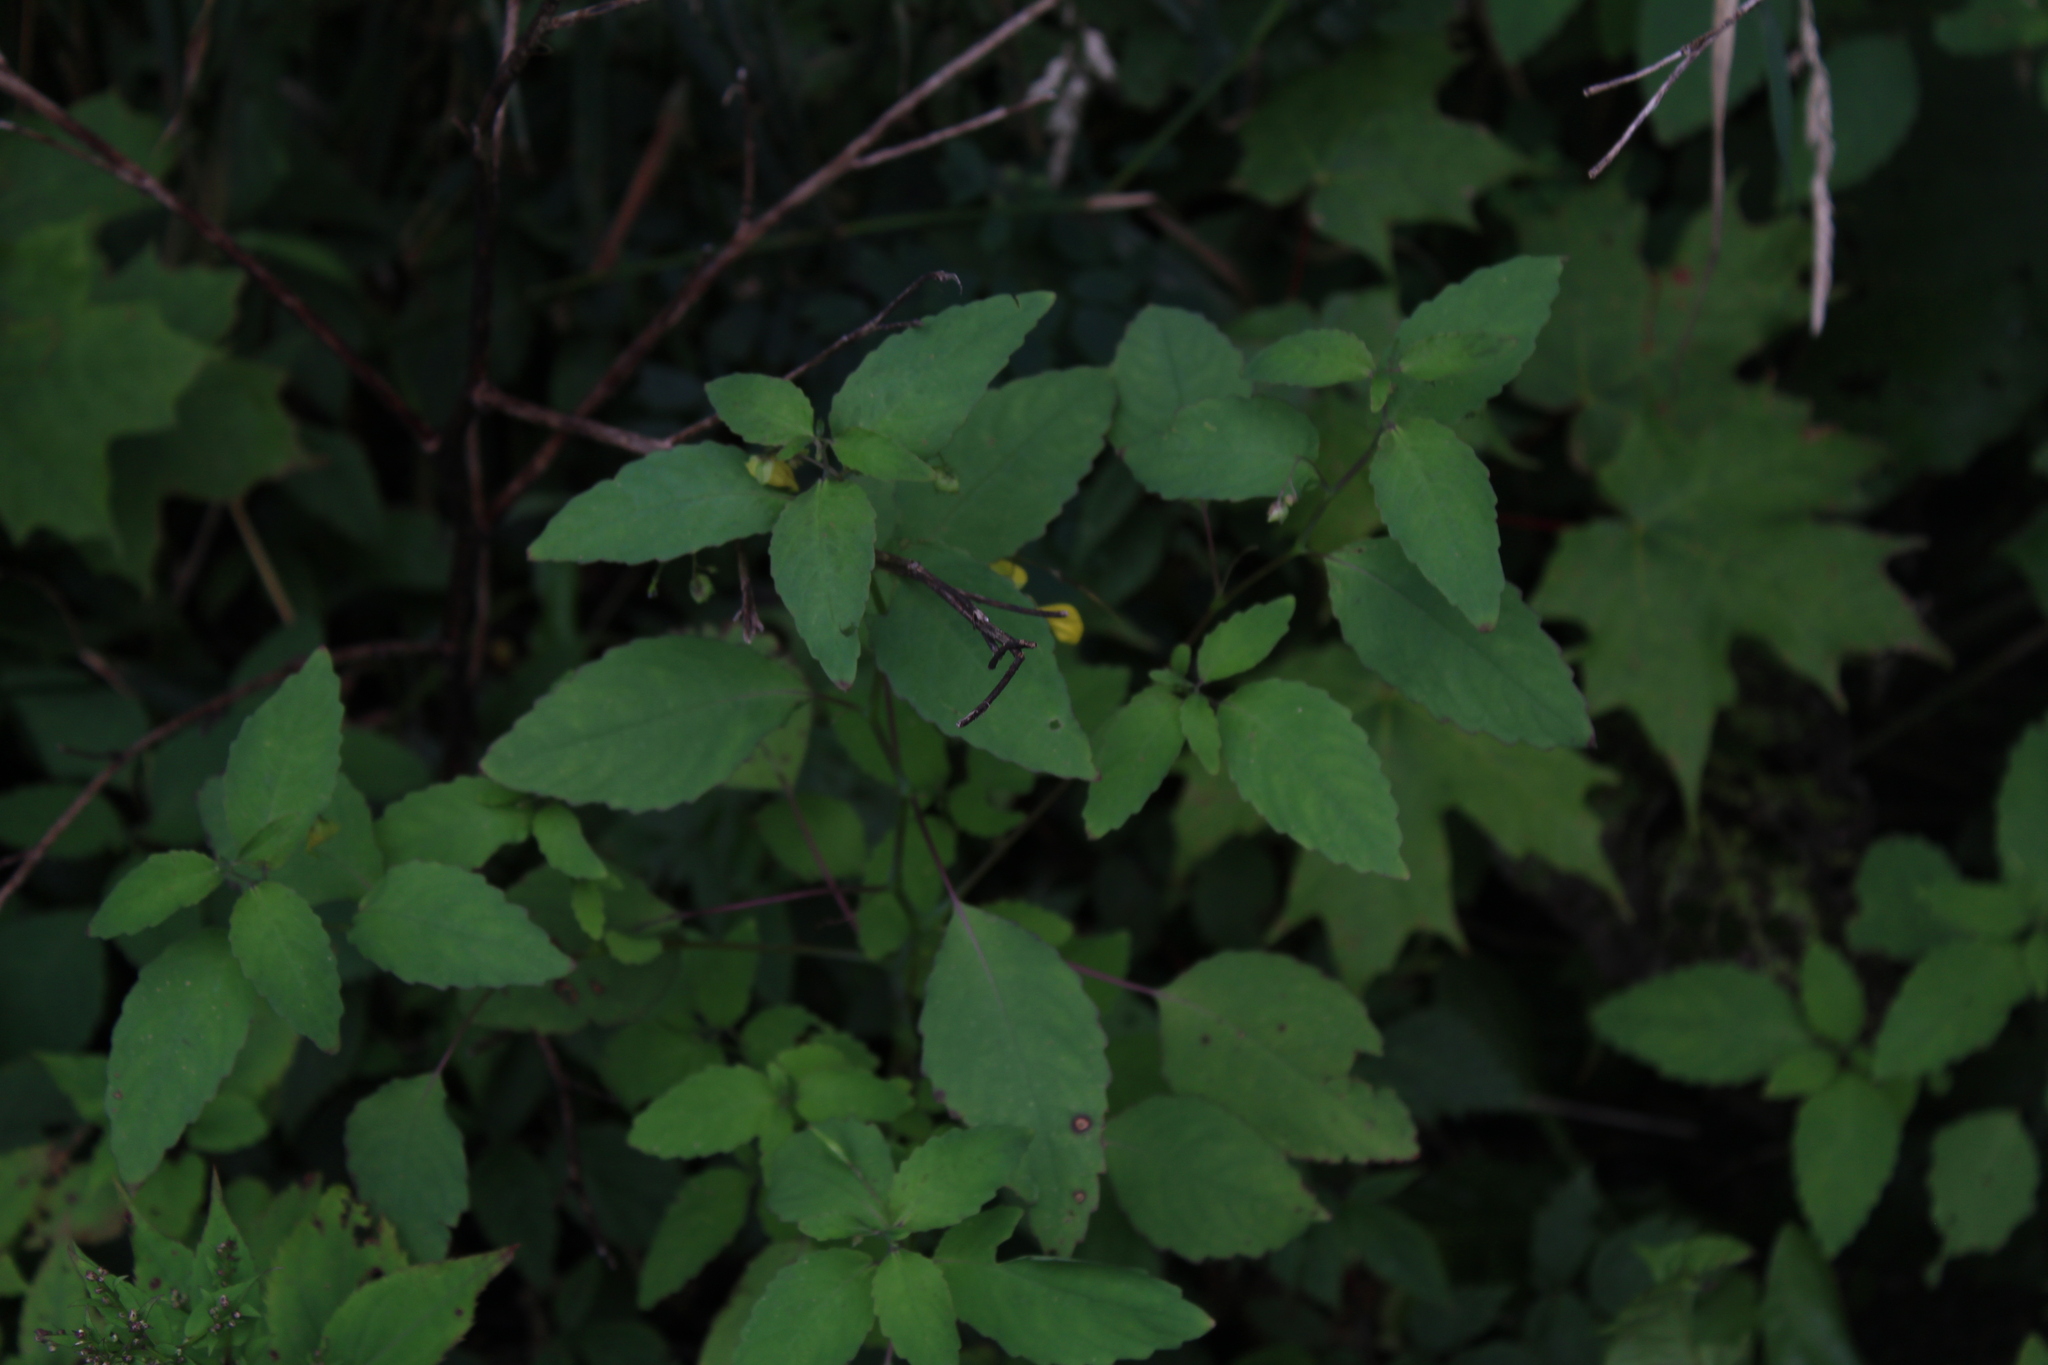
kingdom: Plantae
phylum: Tracheophyta
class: Magnoliopsida
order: Ericales
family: Balsaminaceae
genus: Impatiens
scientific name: Impatiens pallida
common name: Pale snapweed
